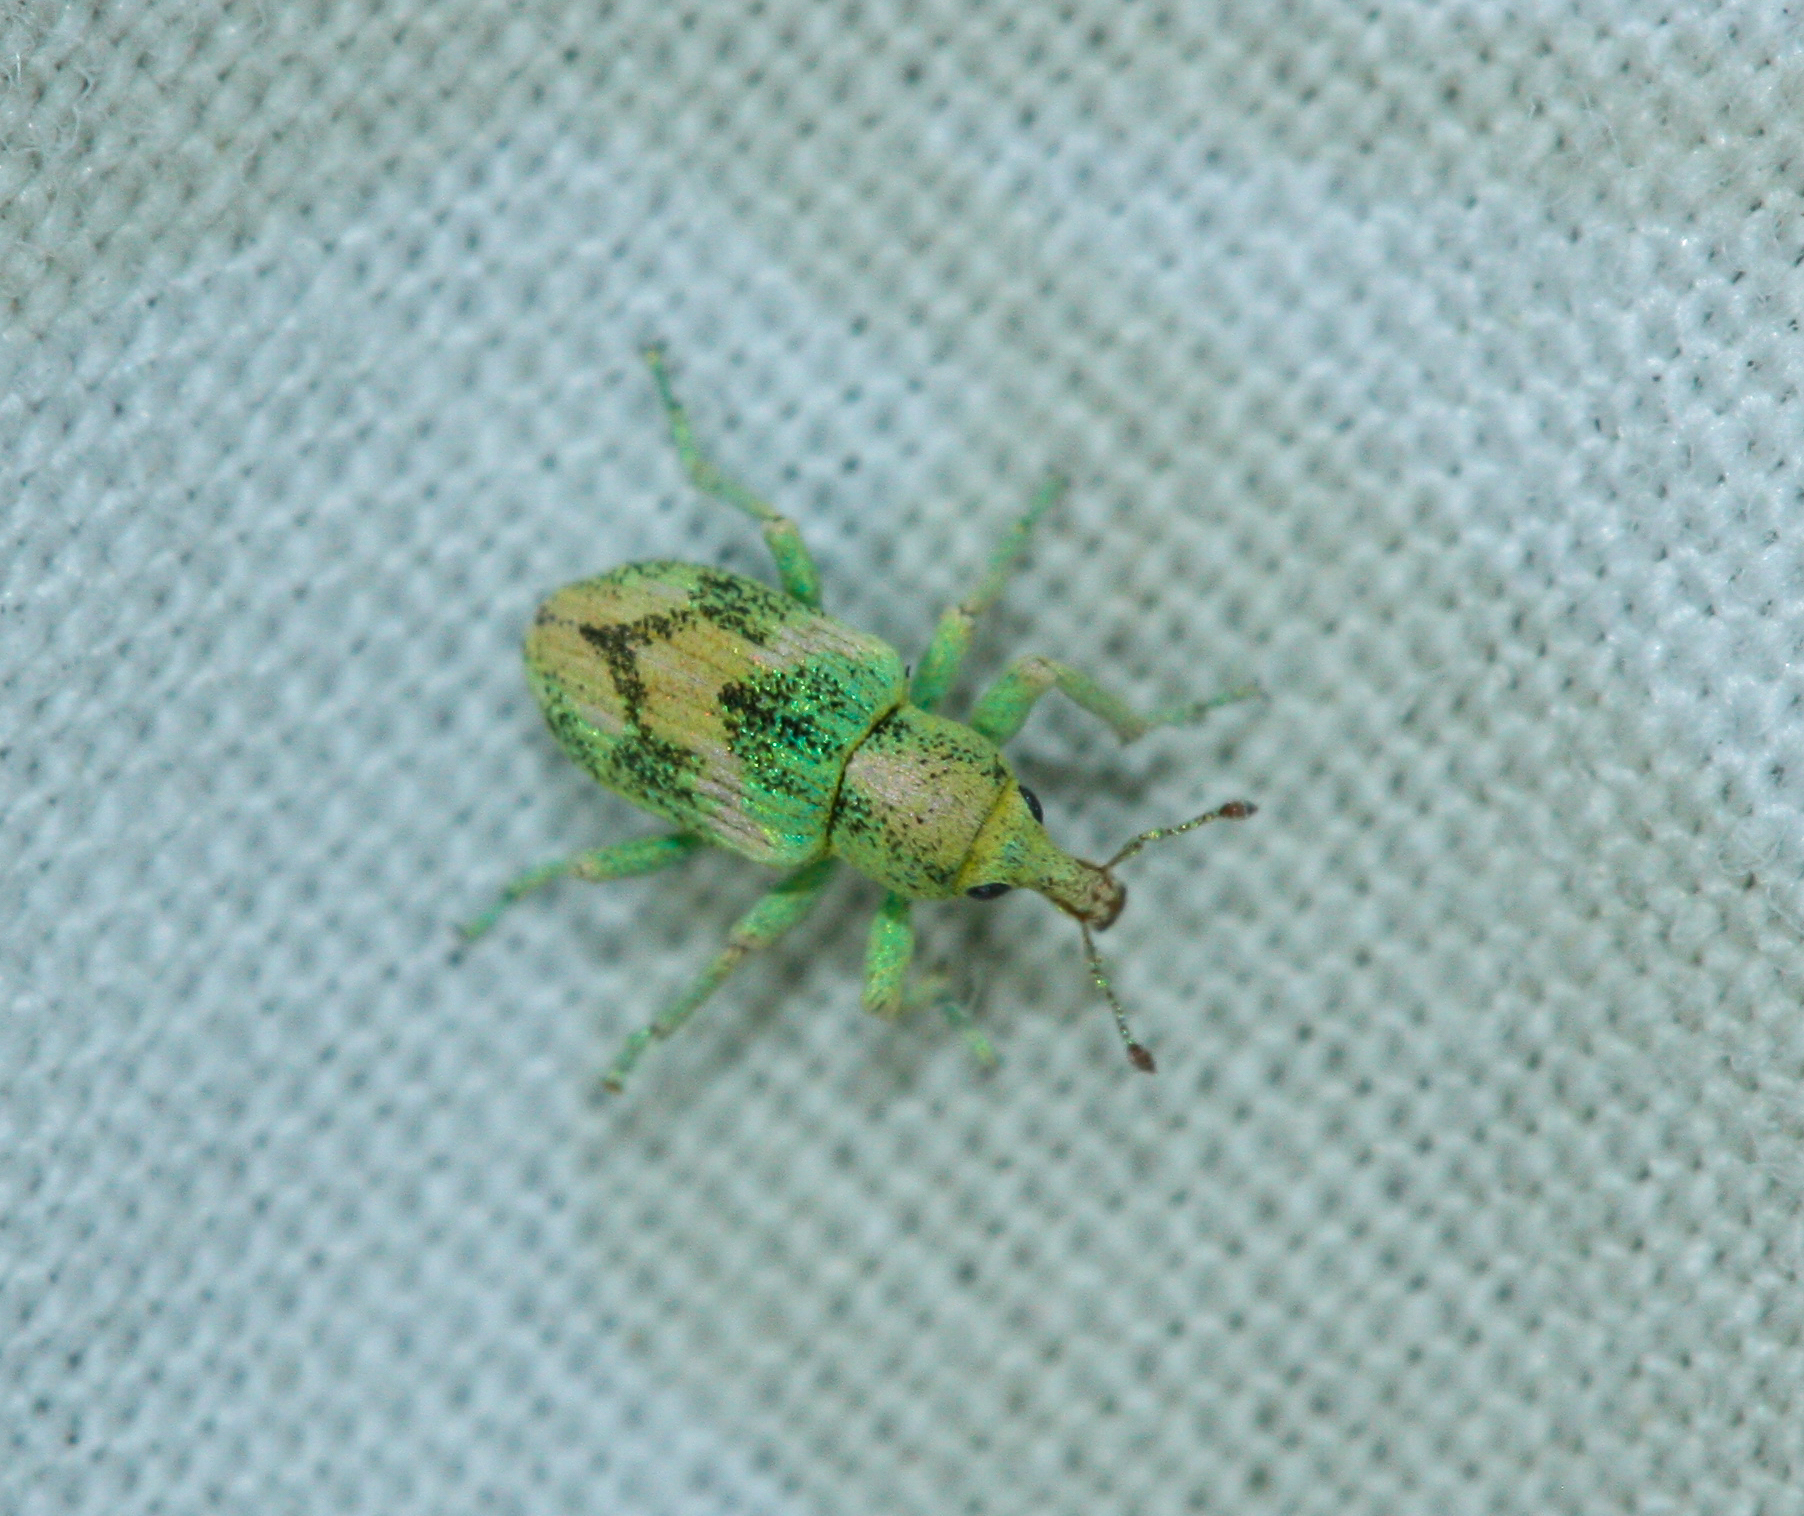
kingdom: Animalia
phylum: Arthropoda
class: Insecta
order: Coleoptera
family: Curculionidae
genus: Coniatus
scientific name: Coniatus splendidulus
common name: Splendid tamarisk weevil
